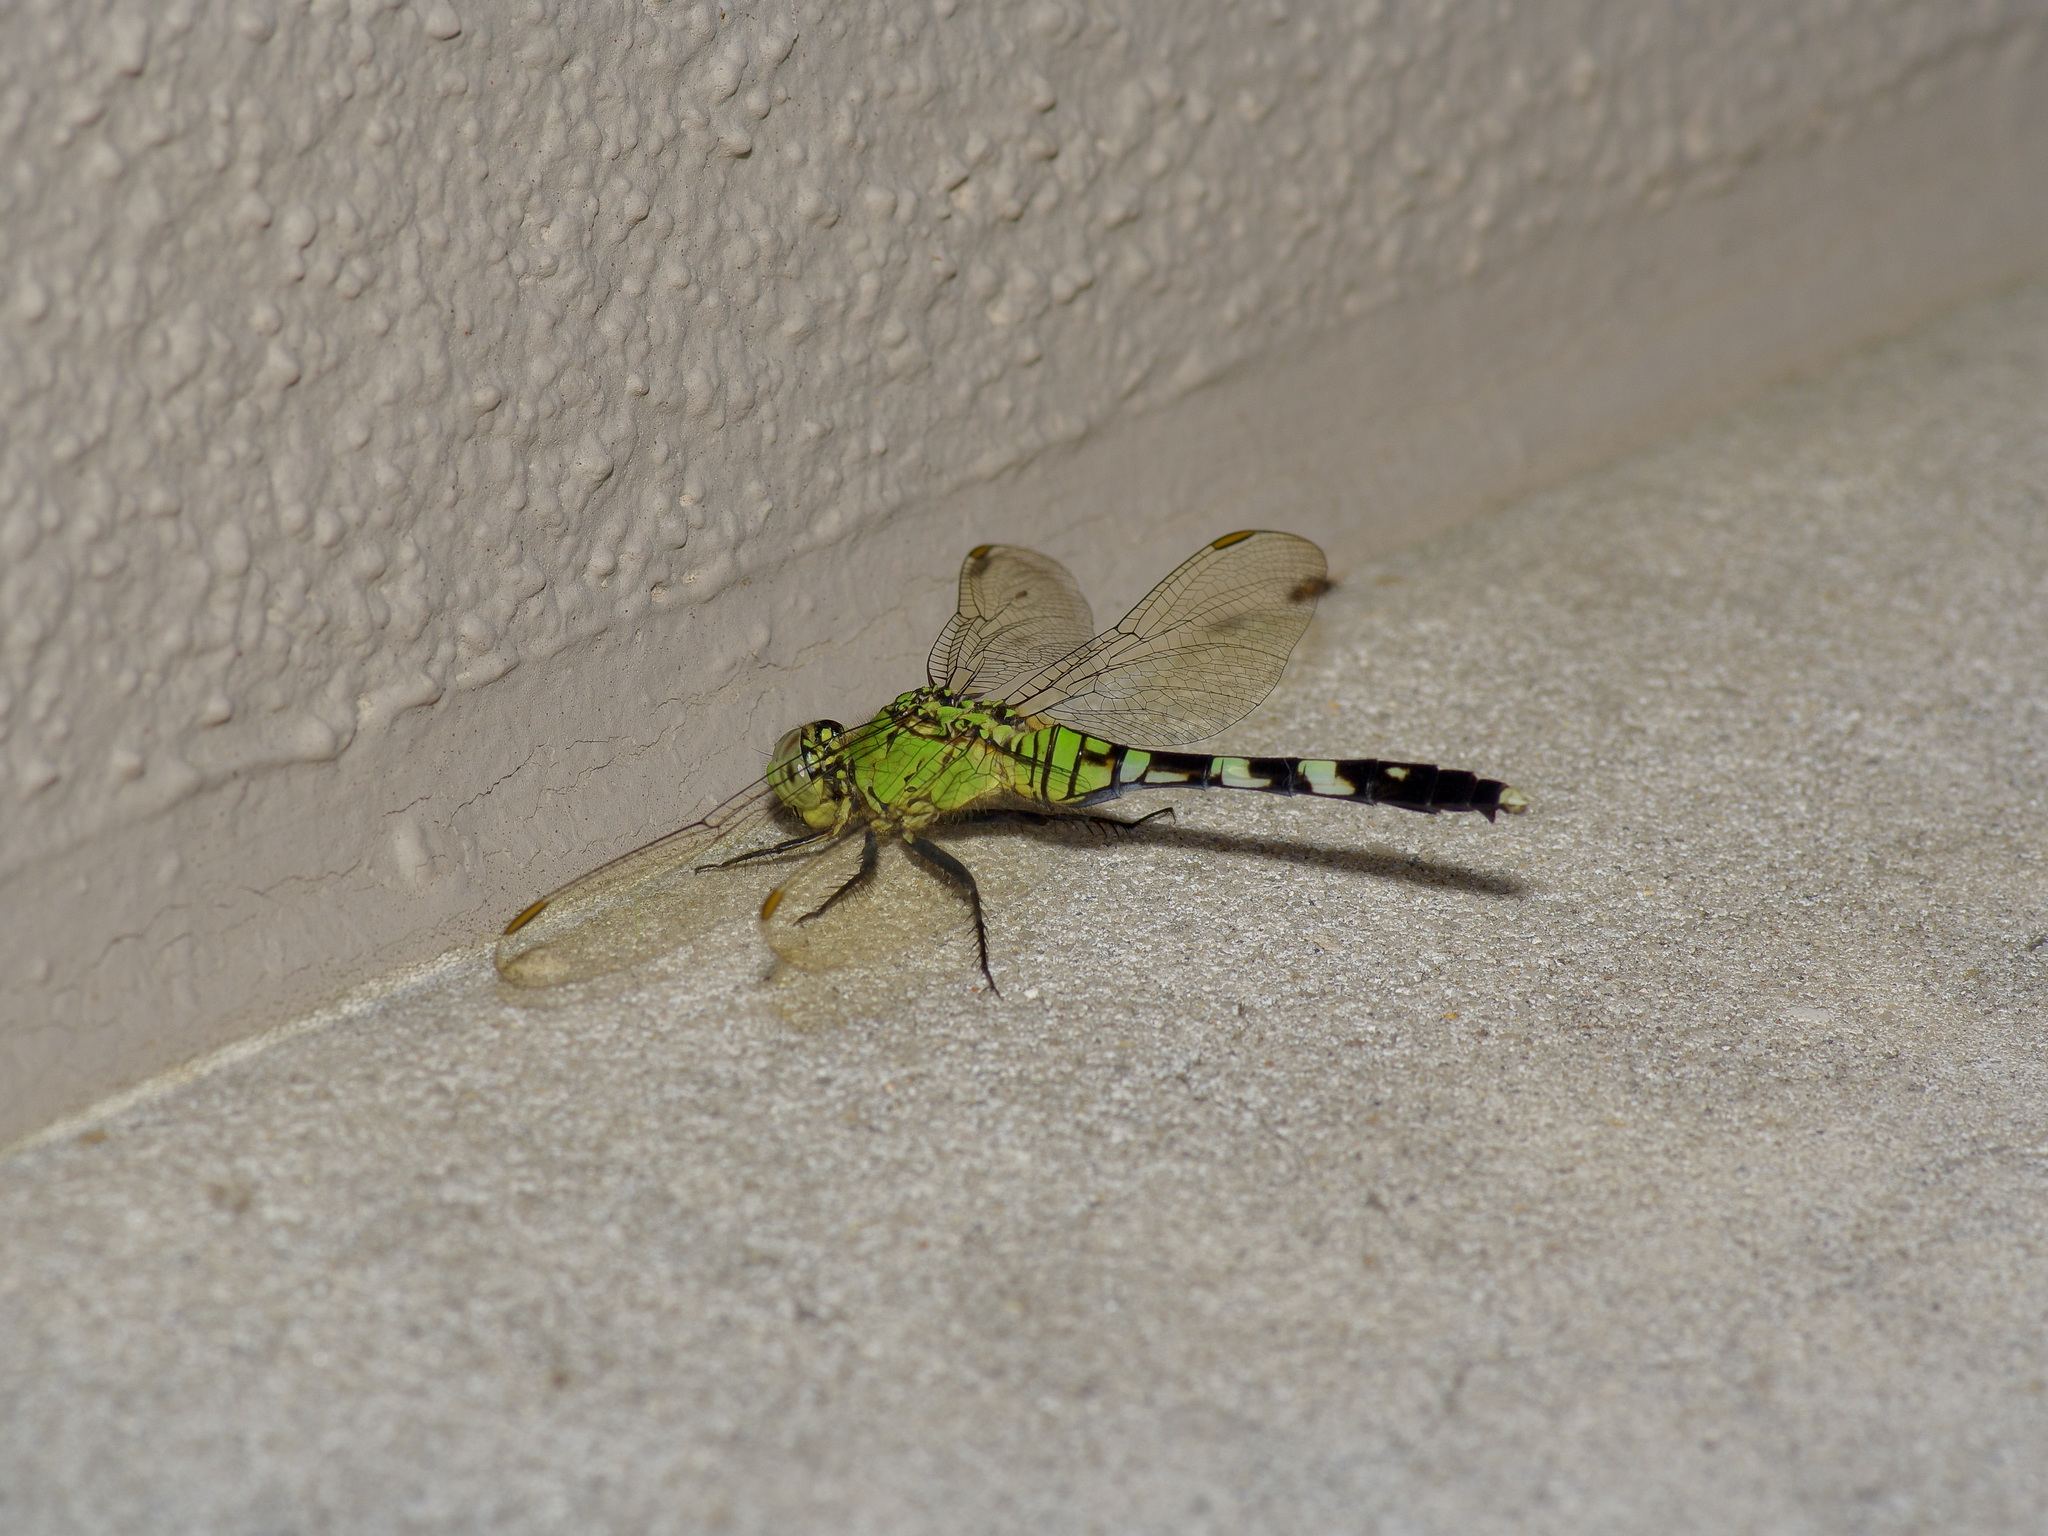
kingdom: Animalia
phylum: Arthropoda
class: Insecta
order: Odonata
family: Libellulidae
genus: Erythemis
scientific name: Erythemis simplicicollis
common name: Eastern pondhawk
